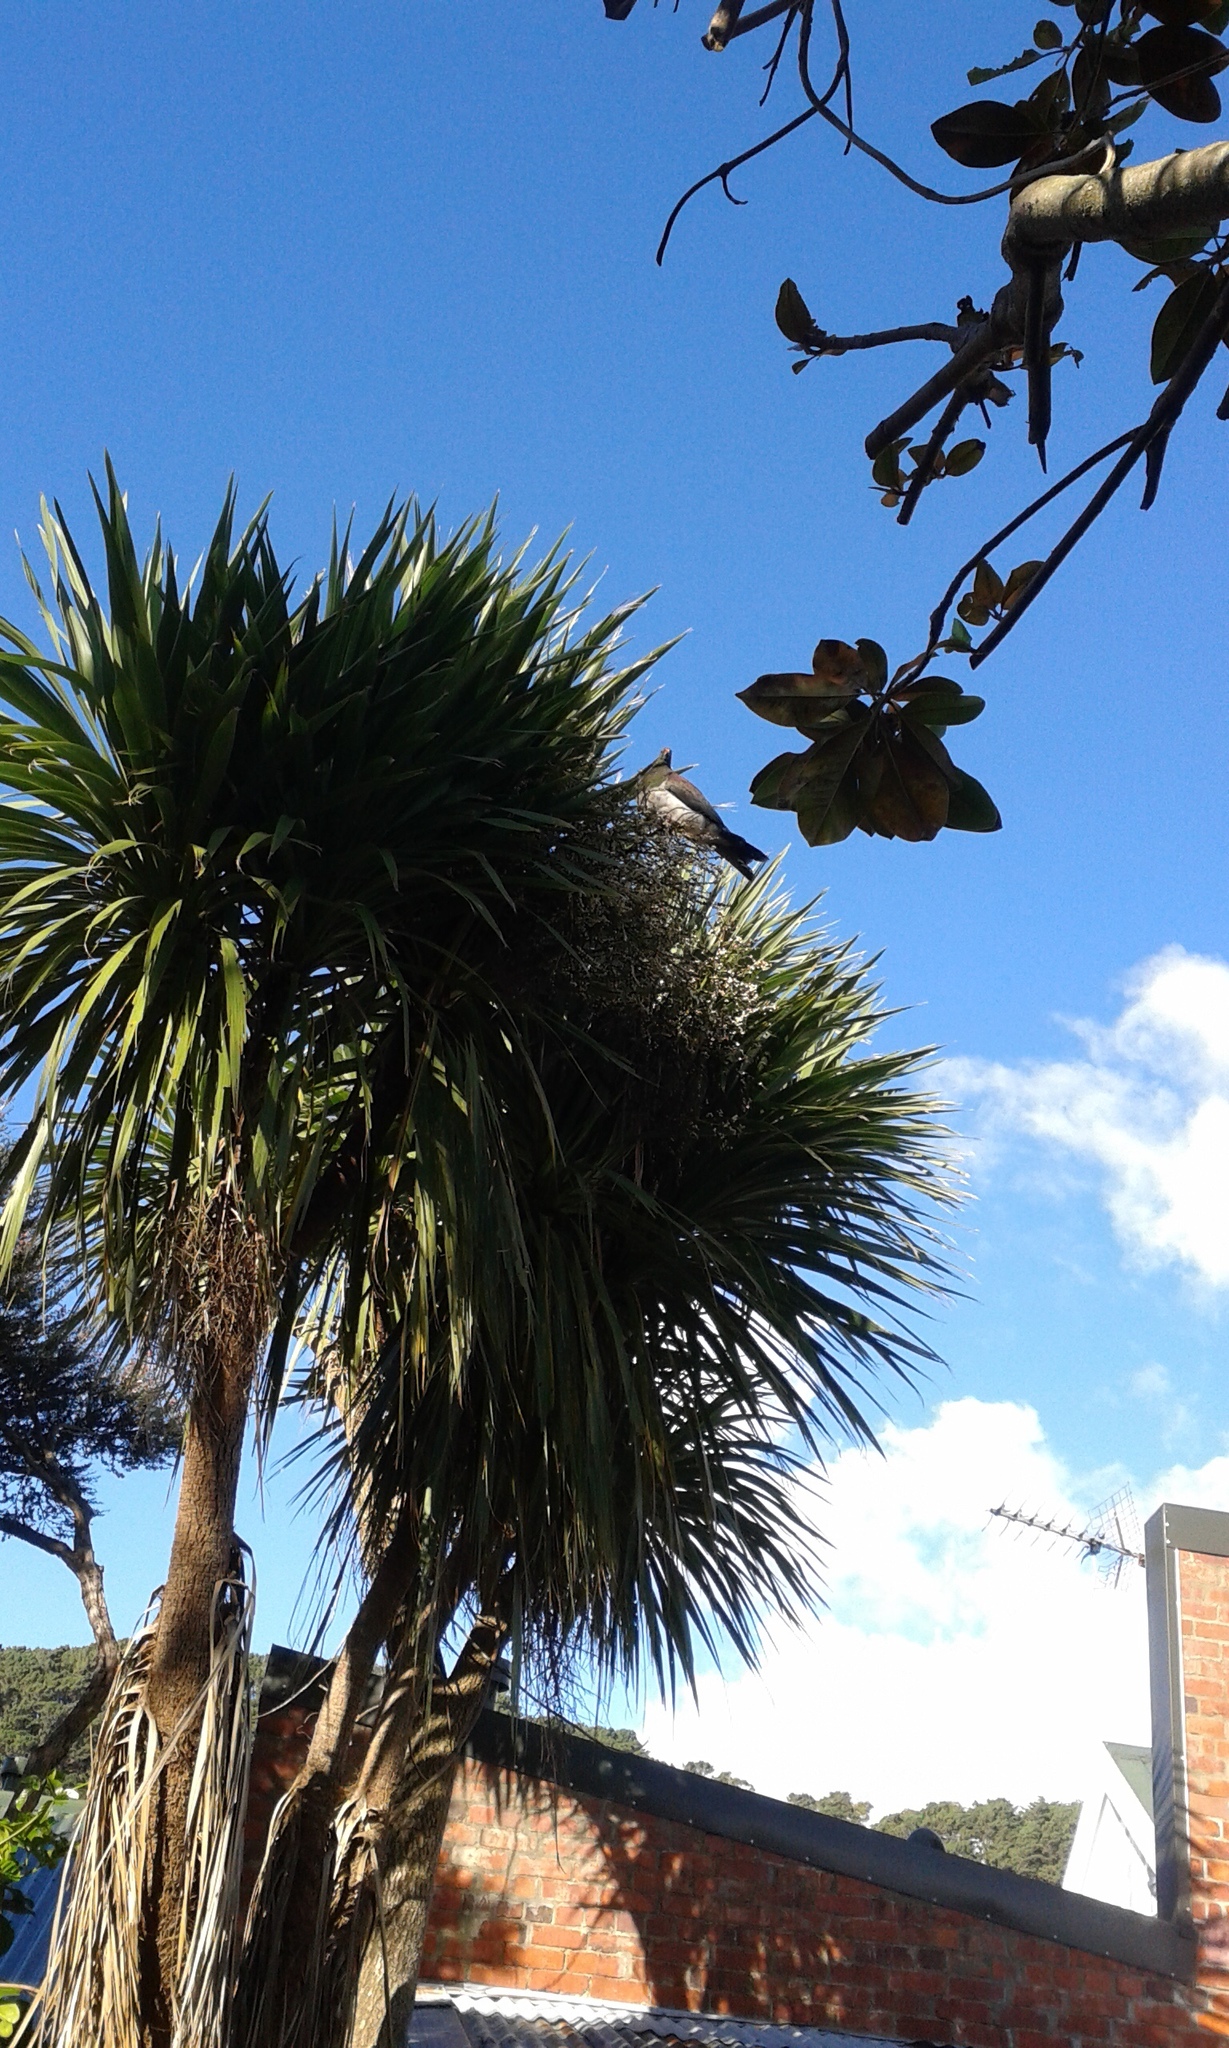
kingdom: Animalia
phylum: Chordata
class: Aves
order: Columbiformes
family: Columbidae
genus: Hemiphaga
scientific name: Hemiphaga novaeseelandiae
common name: New zealand pigeon
